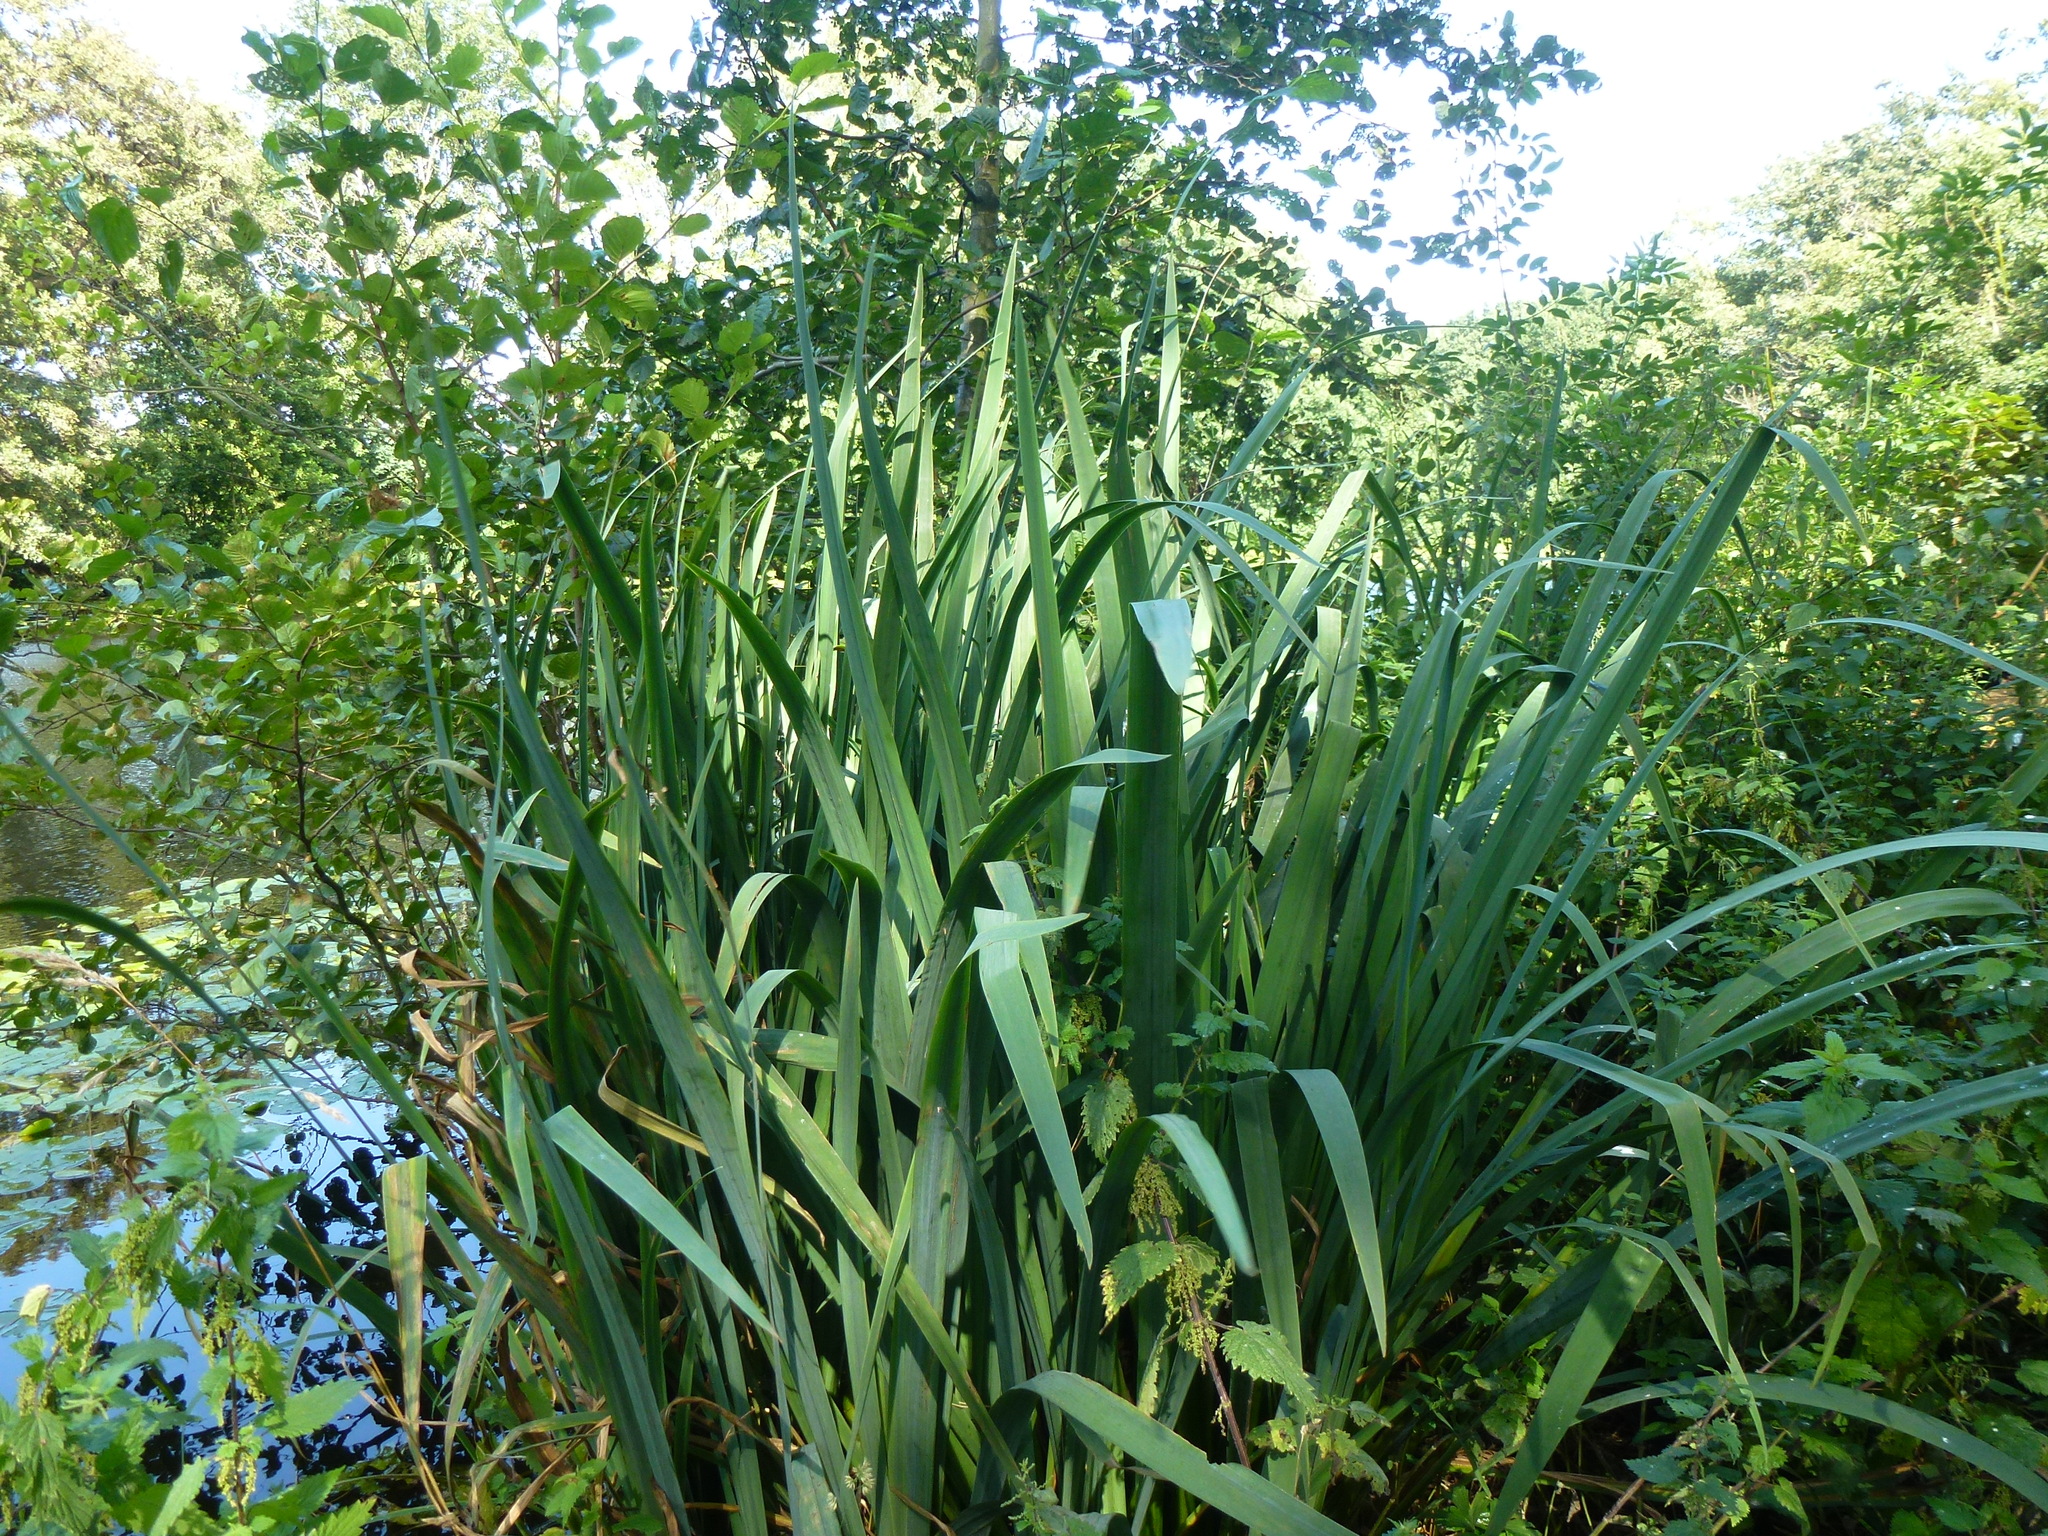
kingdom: Plantae
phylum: Tracheophyta
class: Liliopsida
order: Asparagales
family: Iridaceae
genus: Iris
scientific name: Iris pseudacorus
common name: Yellow flag
